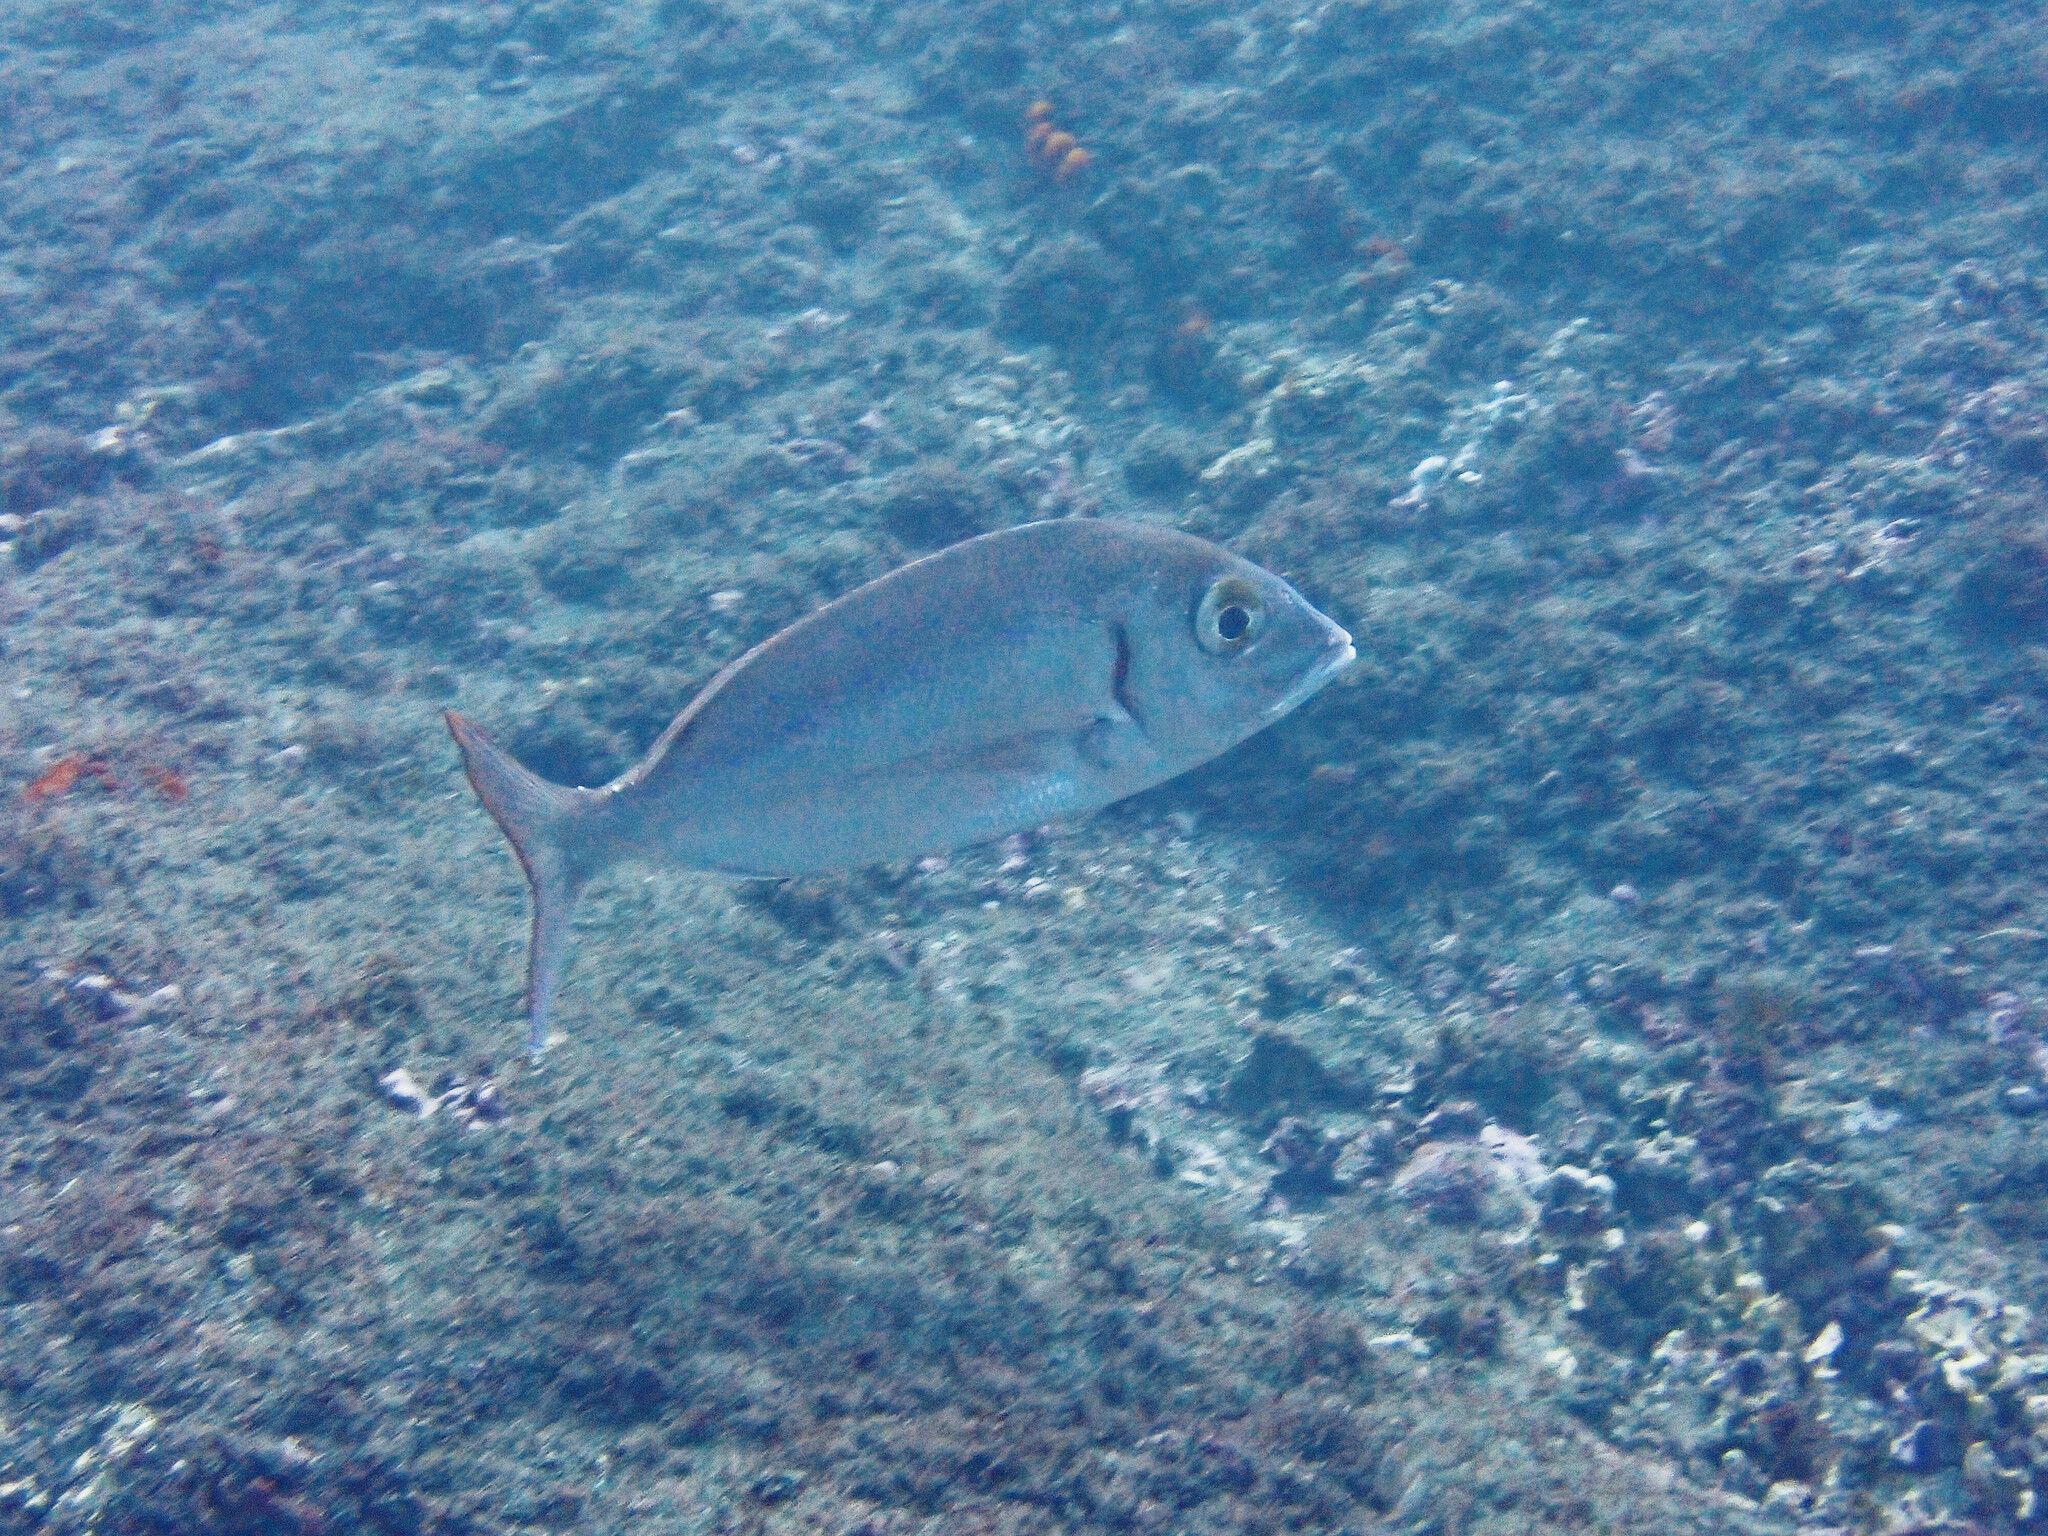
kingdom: Animalia
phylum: Chordata
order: Perciformes
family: Sparidae
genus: Pagellus
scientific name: Pagellus erythrinus
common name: Pandora
